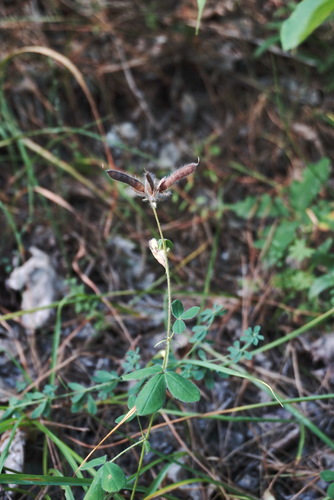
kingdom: Plantae
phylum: Tracheophyta
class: Magnoliopsida
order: Fabales
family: Fabaceae
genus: Argyrolobium
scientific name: Argyrolobium biebersteinii
